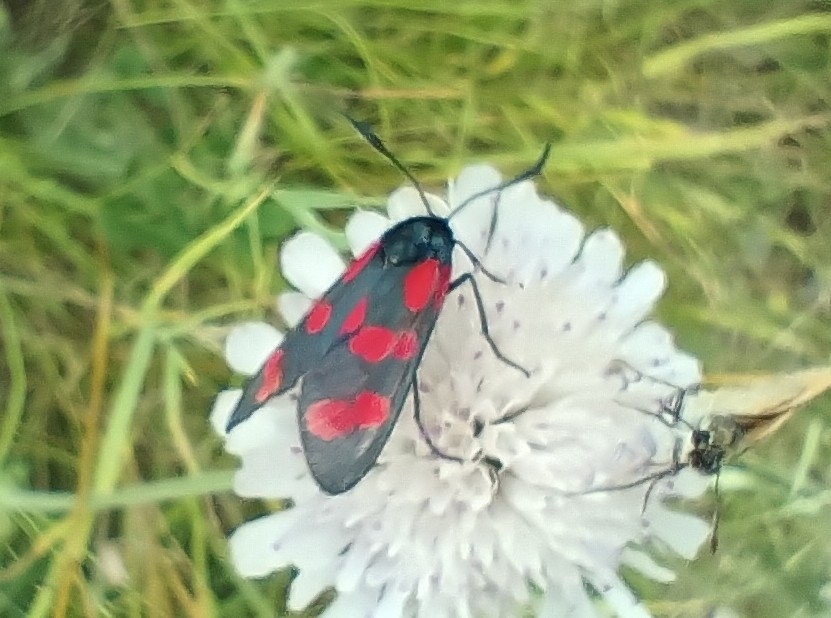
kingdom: Animalia
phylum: Arthropoda
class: Insecta
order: Lepidoptera
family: Zygaenidae
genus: Zygaena
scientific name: Zygaena filipendulae
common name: Six-spot burnet
